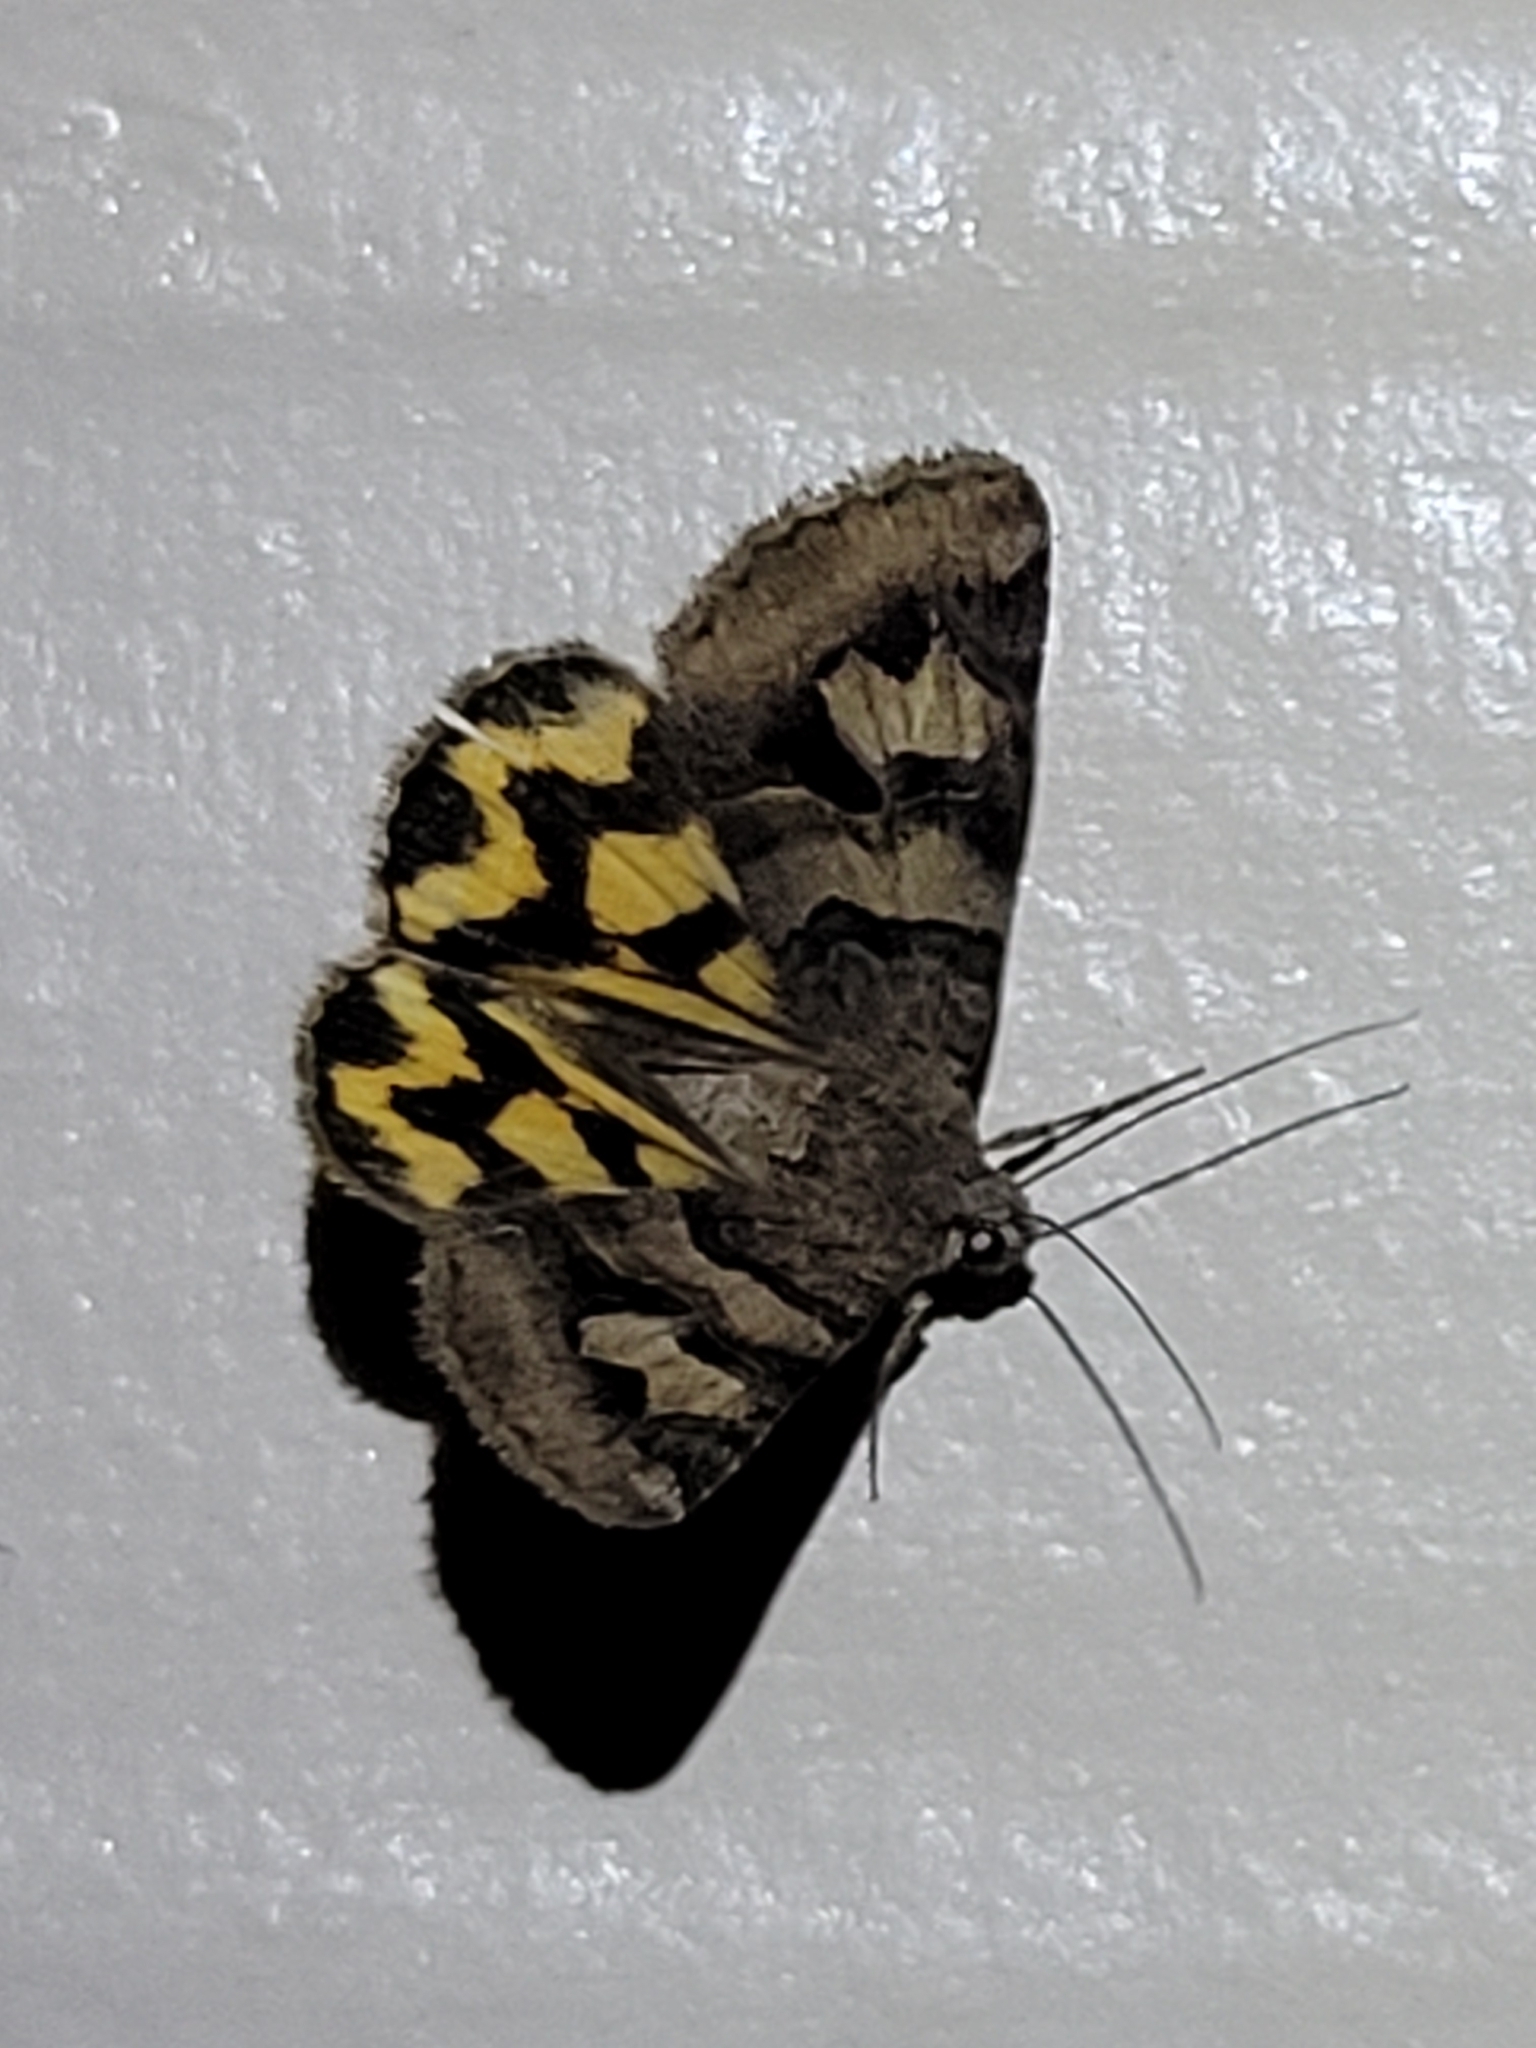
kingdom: Animalia
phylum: Arthropoda
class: Insecta
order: Lepidoptera
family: Erebidae
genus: Drasteria
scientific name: Drasteria adumbrata
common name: Shadowy arches
